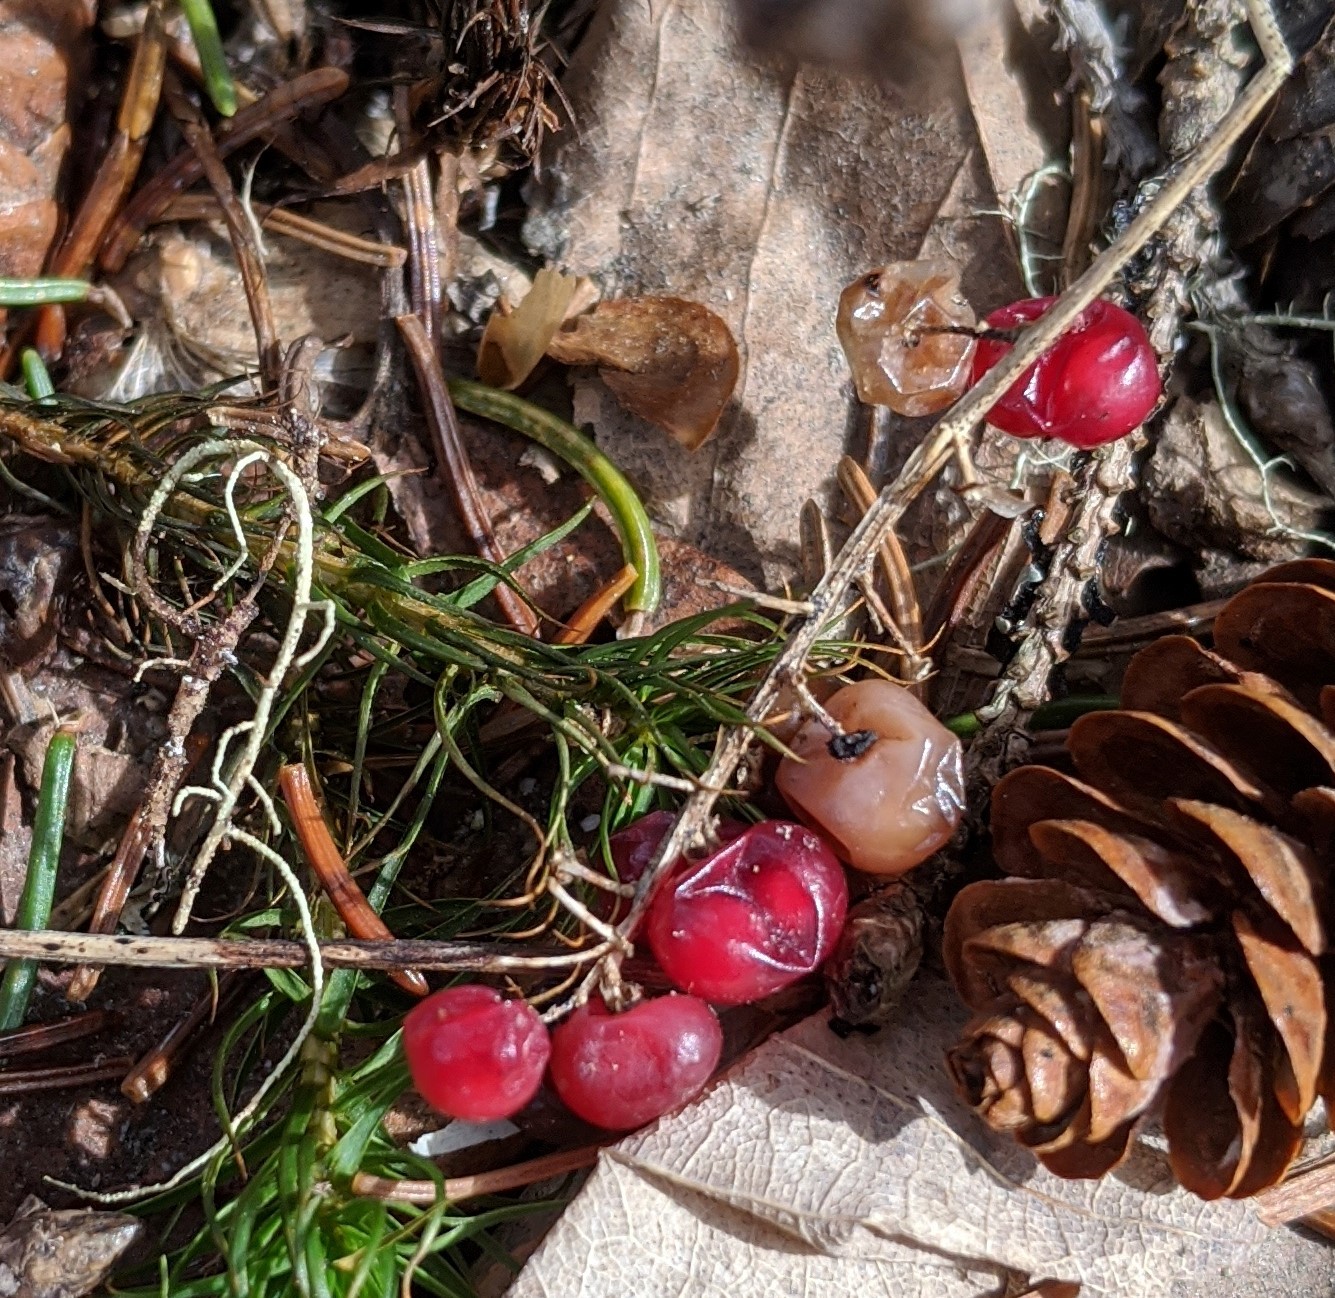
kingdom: Plantae
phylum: Tracheophyta
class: Liliopsida
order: Asparagales
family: Asparagaceae
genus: Maianthemum
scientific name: Maianthemum canadense
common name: False lily-of-the-valley
